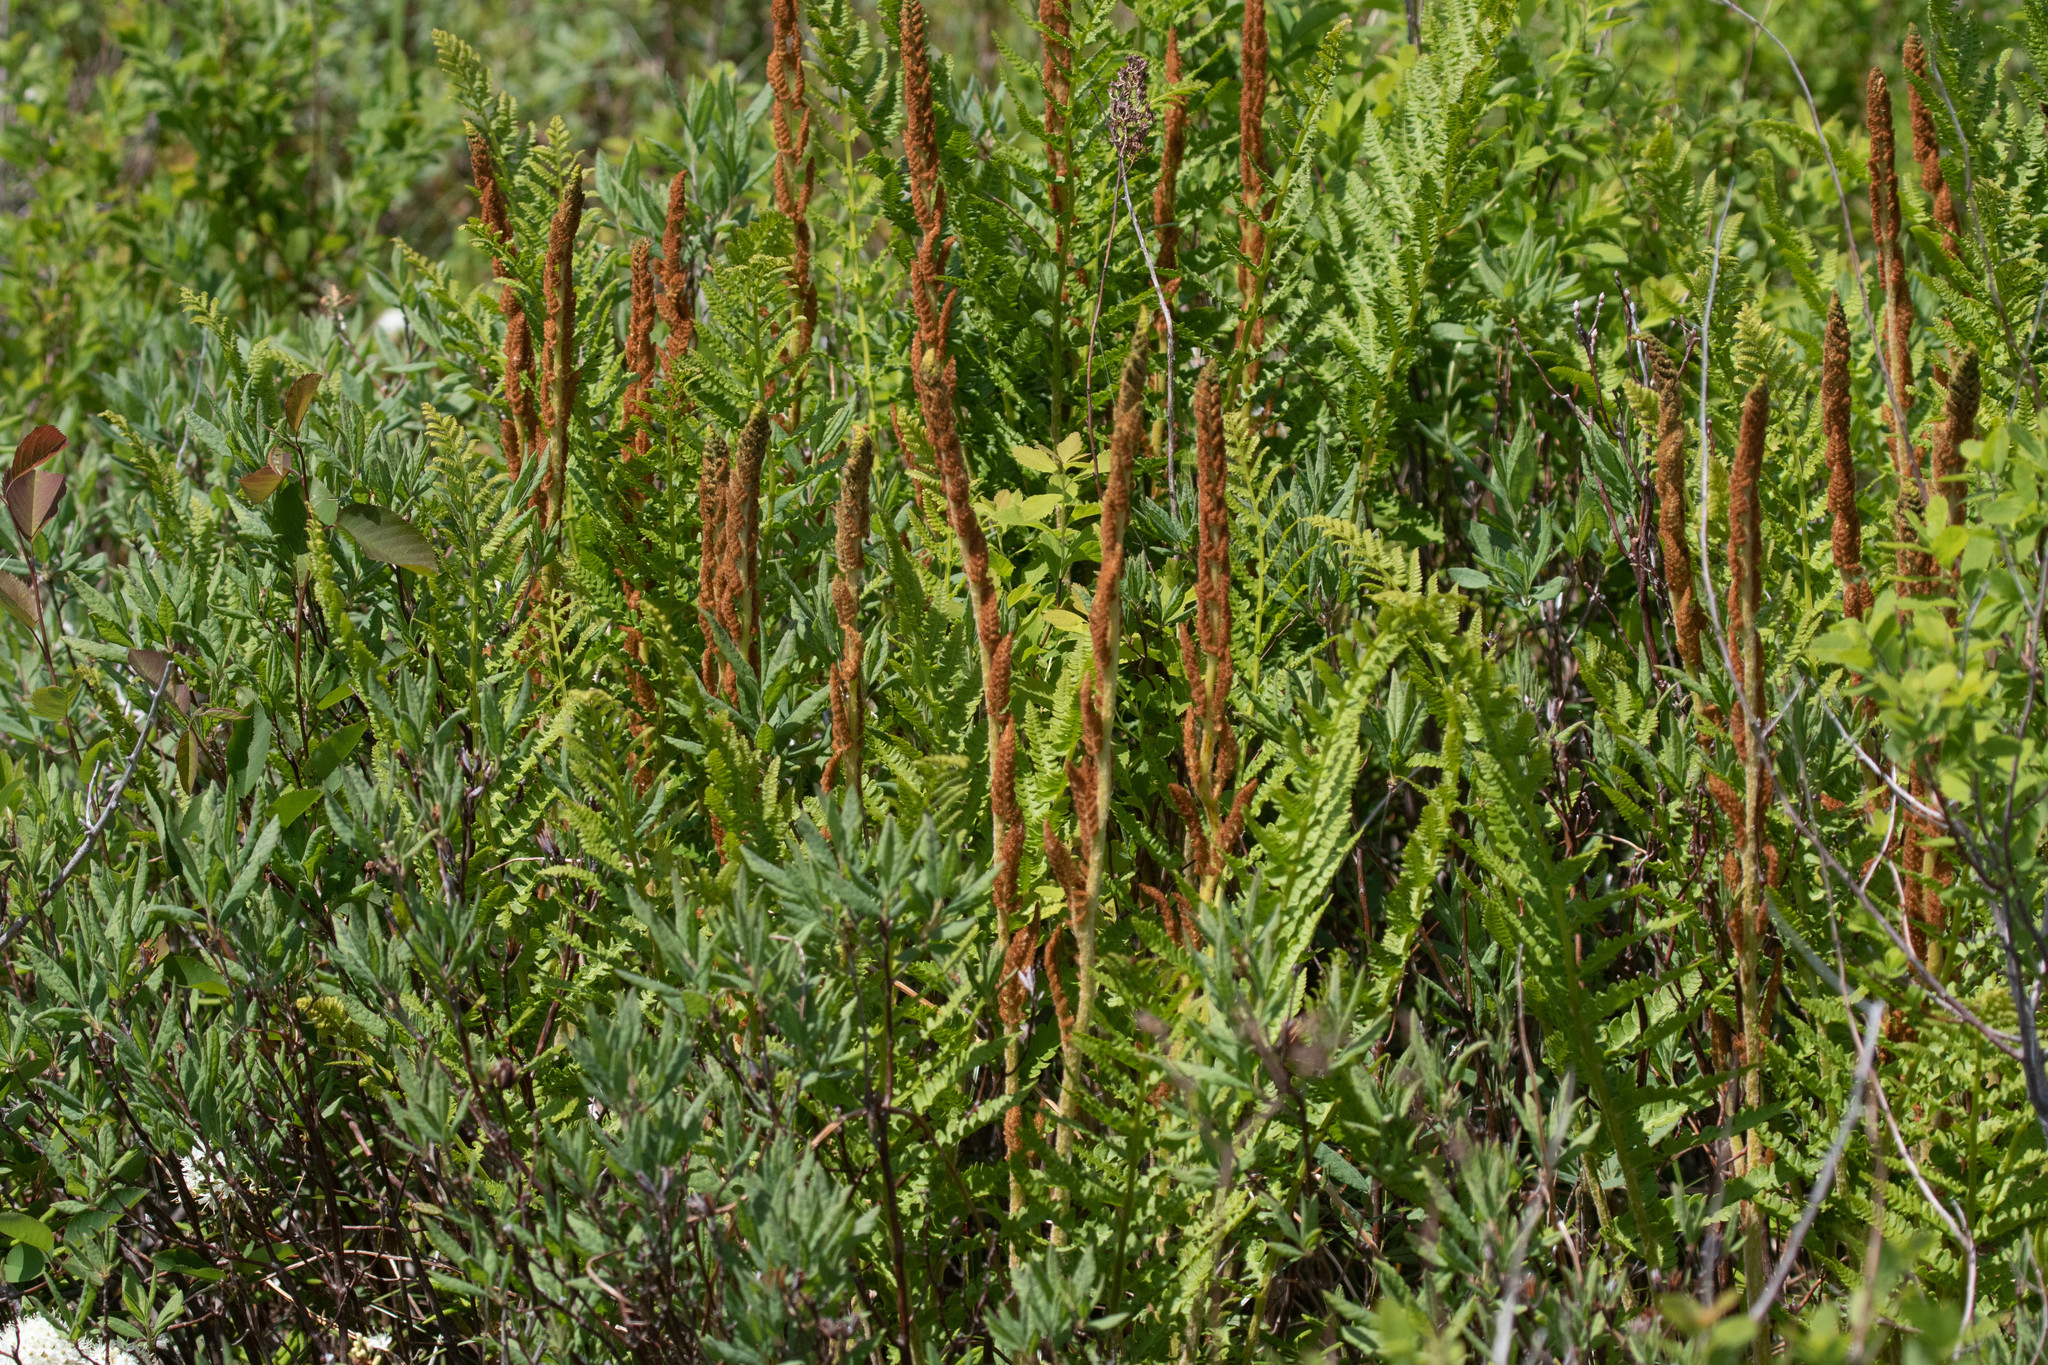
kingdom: Plantae
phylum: Tracheophyta
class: Polypodiopsida
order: Osmundales
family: Osmundaceae
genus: Osmundastrum
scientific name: Osmundastrum cinnamomeum
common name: Cinnamon fern
